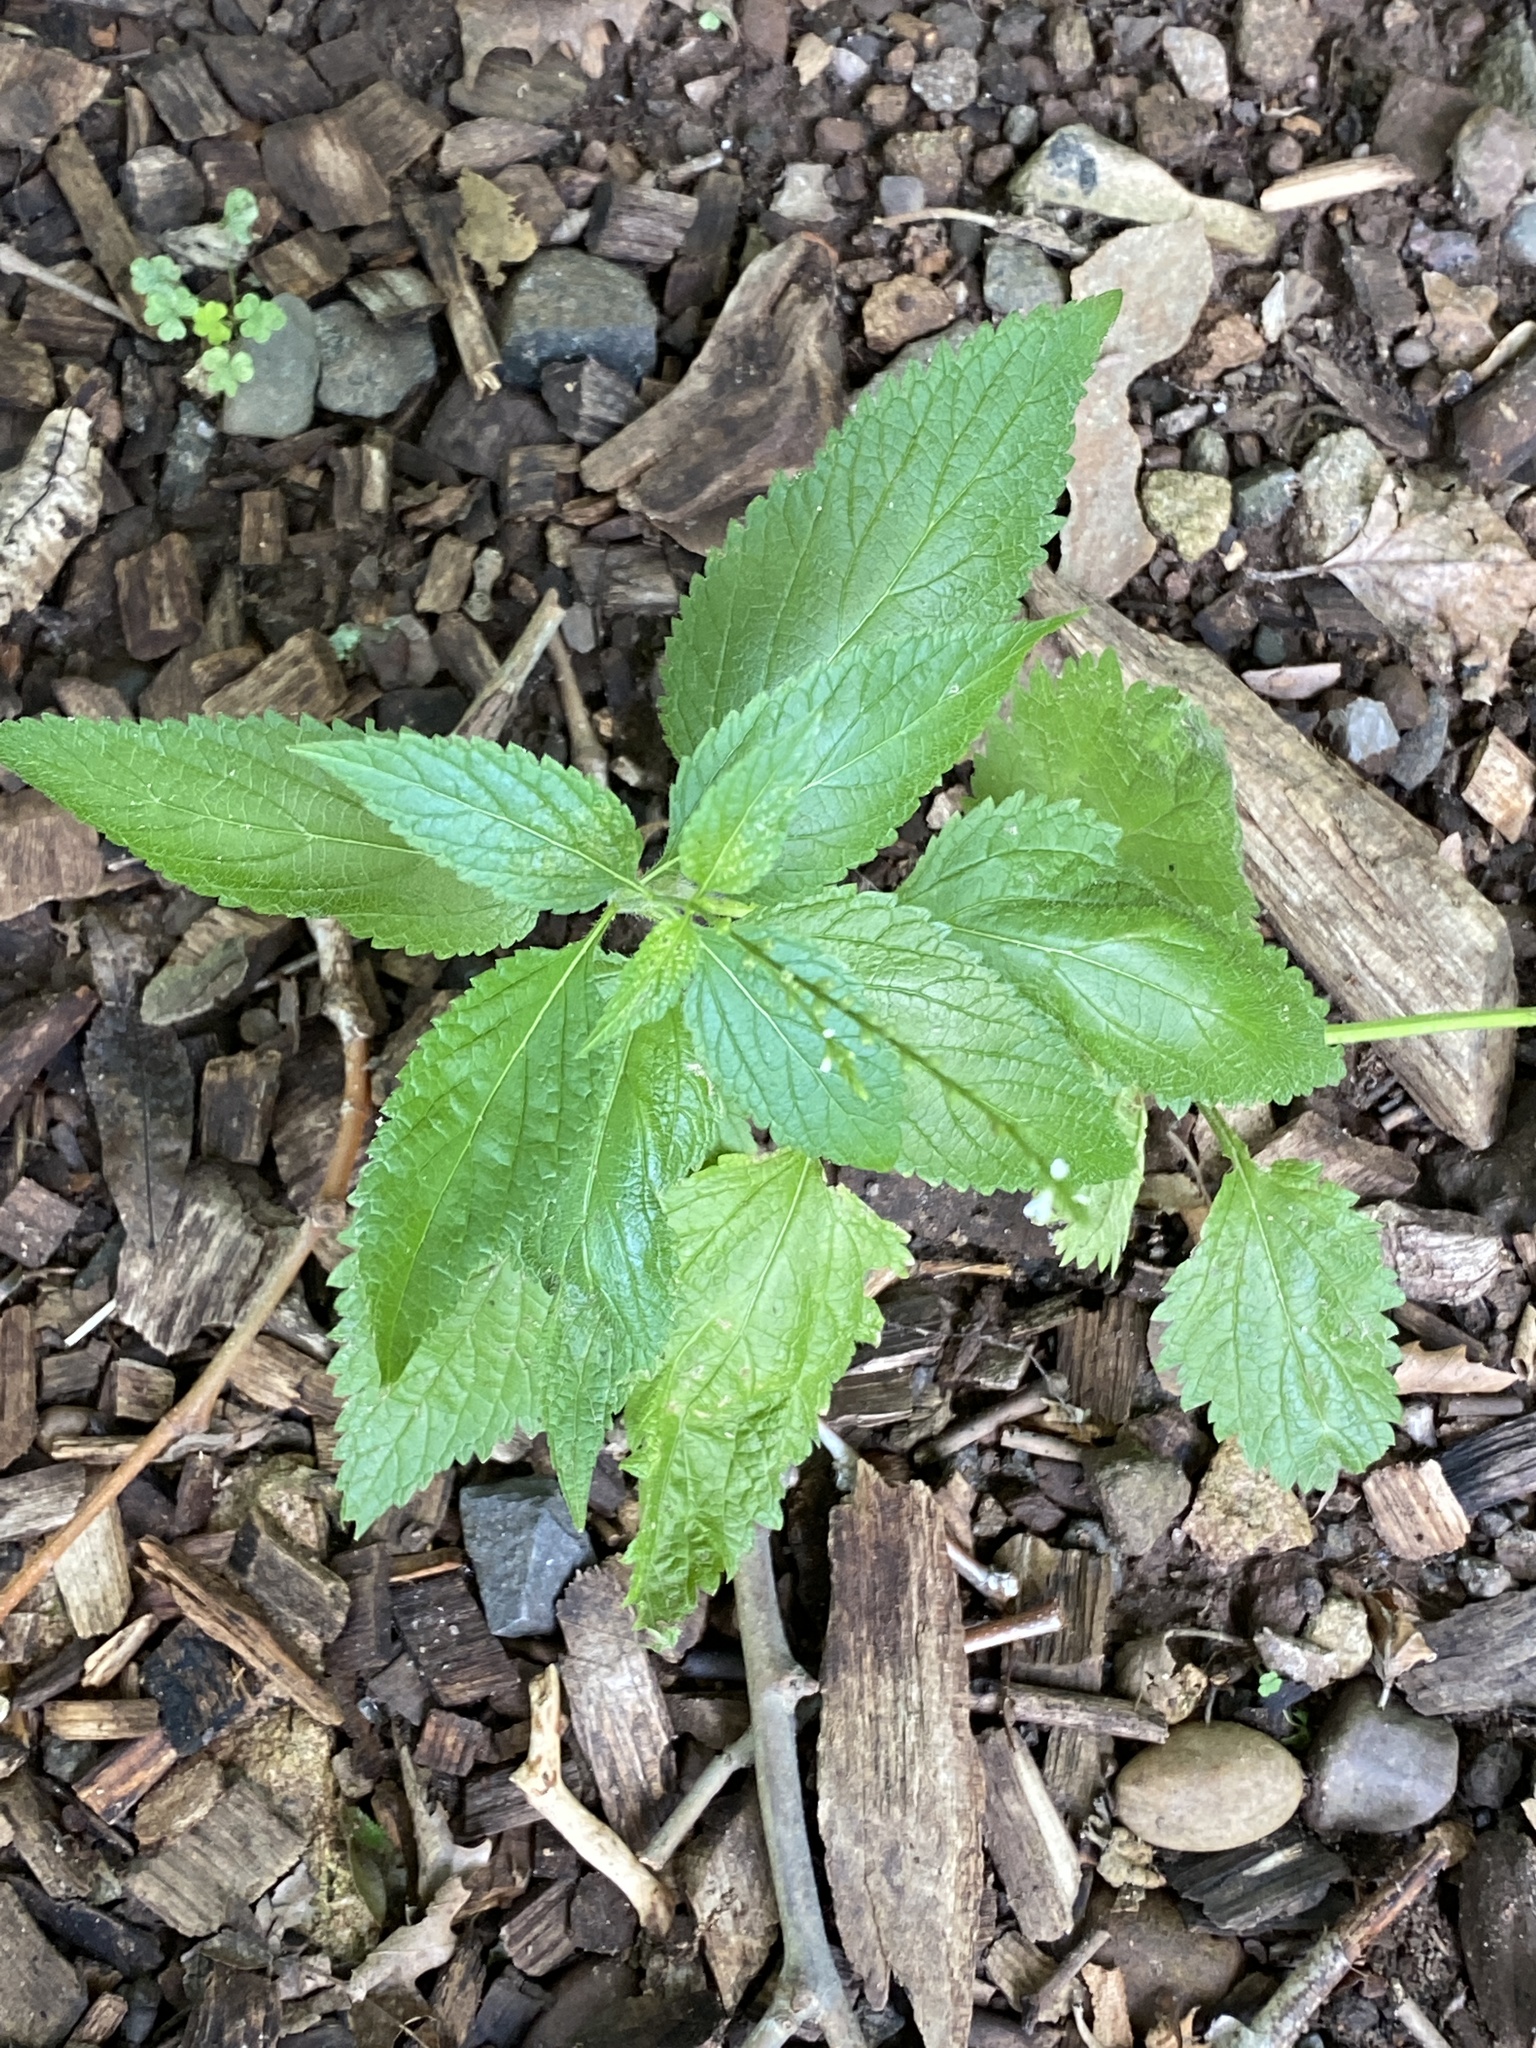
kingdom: Plantae
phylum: Tracheophyta
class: Magnoliopsida
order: Lamiales
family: Verbenaceae
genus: Verbena
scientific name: Verbena urticifolia
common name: Nettle-leaved vervain
